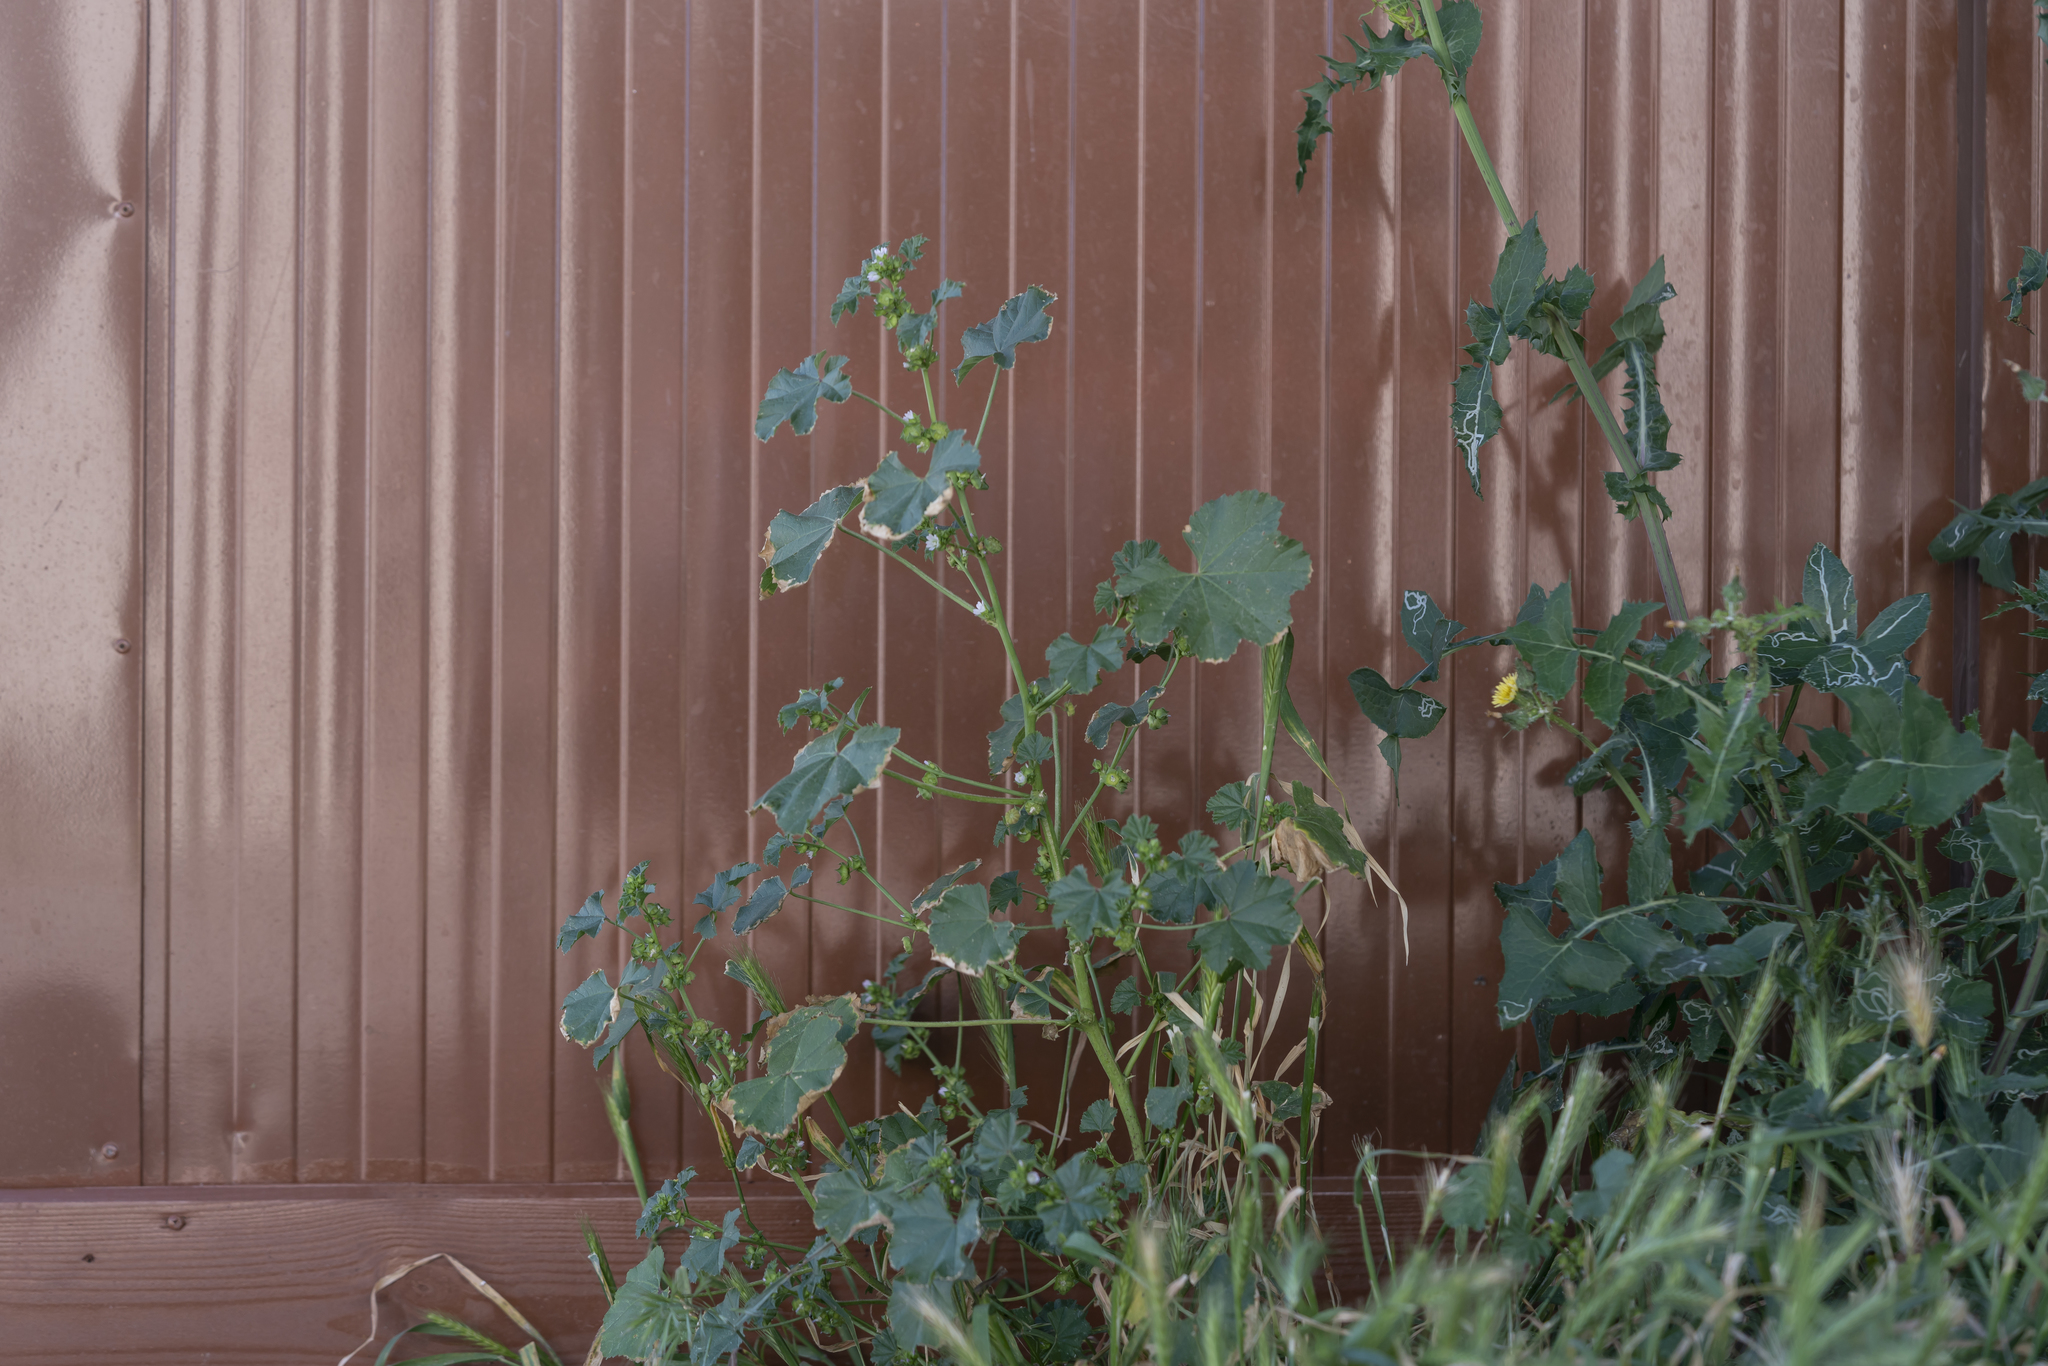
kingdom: Plantae
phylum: Tracheophyta
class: Magnoliopsida
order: Malvales
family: Malvaceae
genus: Malva
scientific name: Malva parviflora
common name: Least mallow
